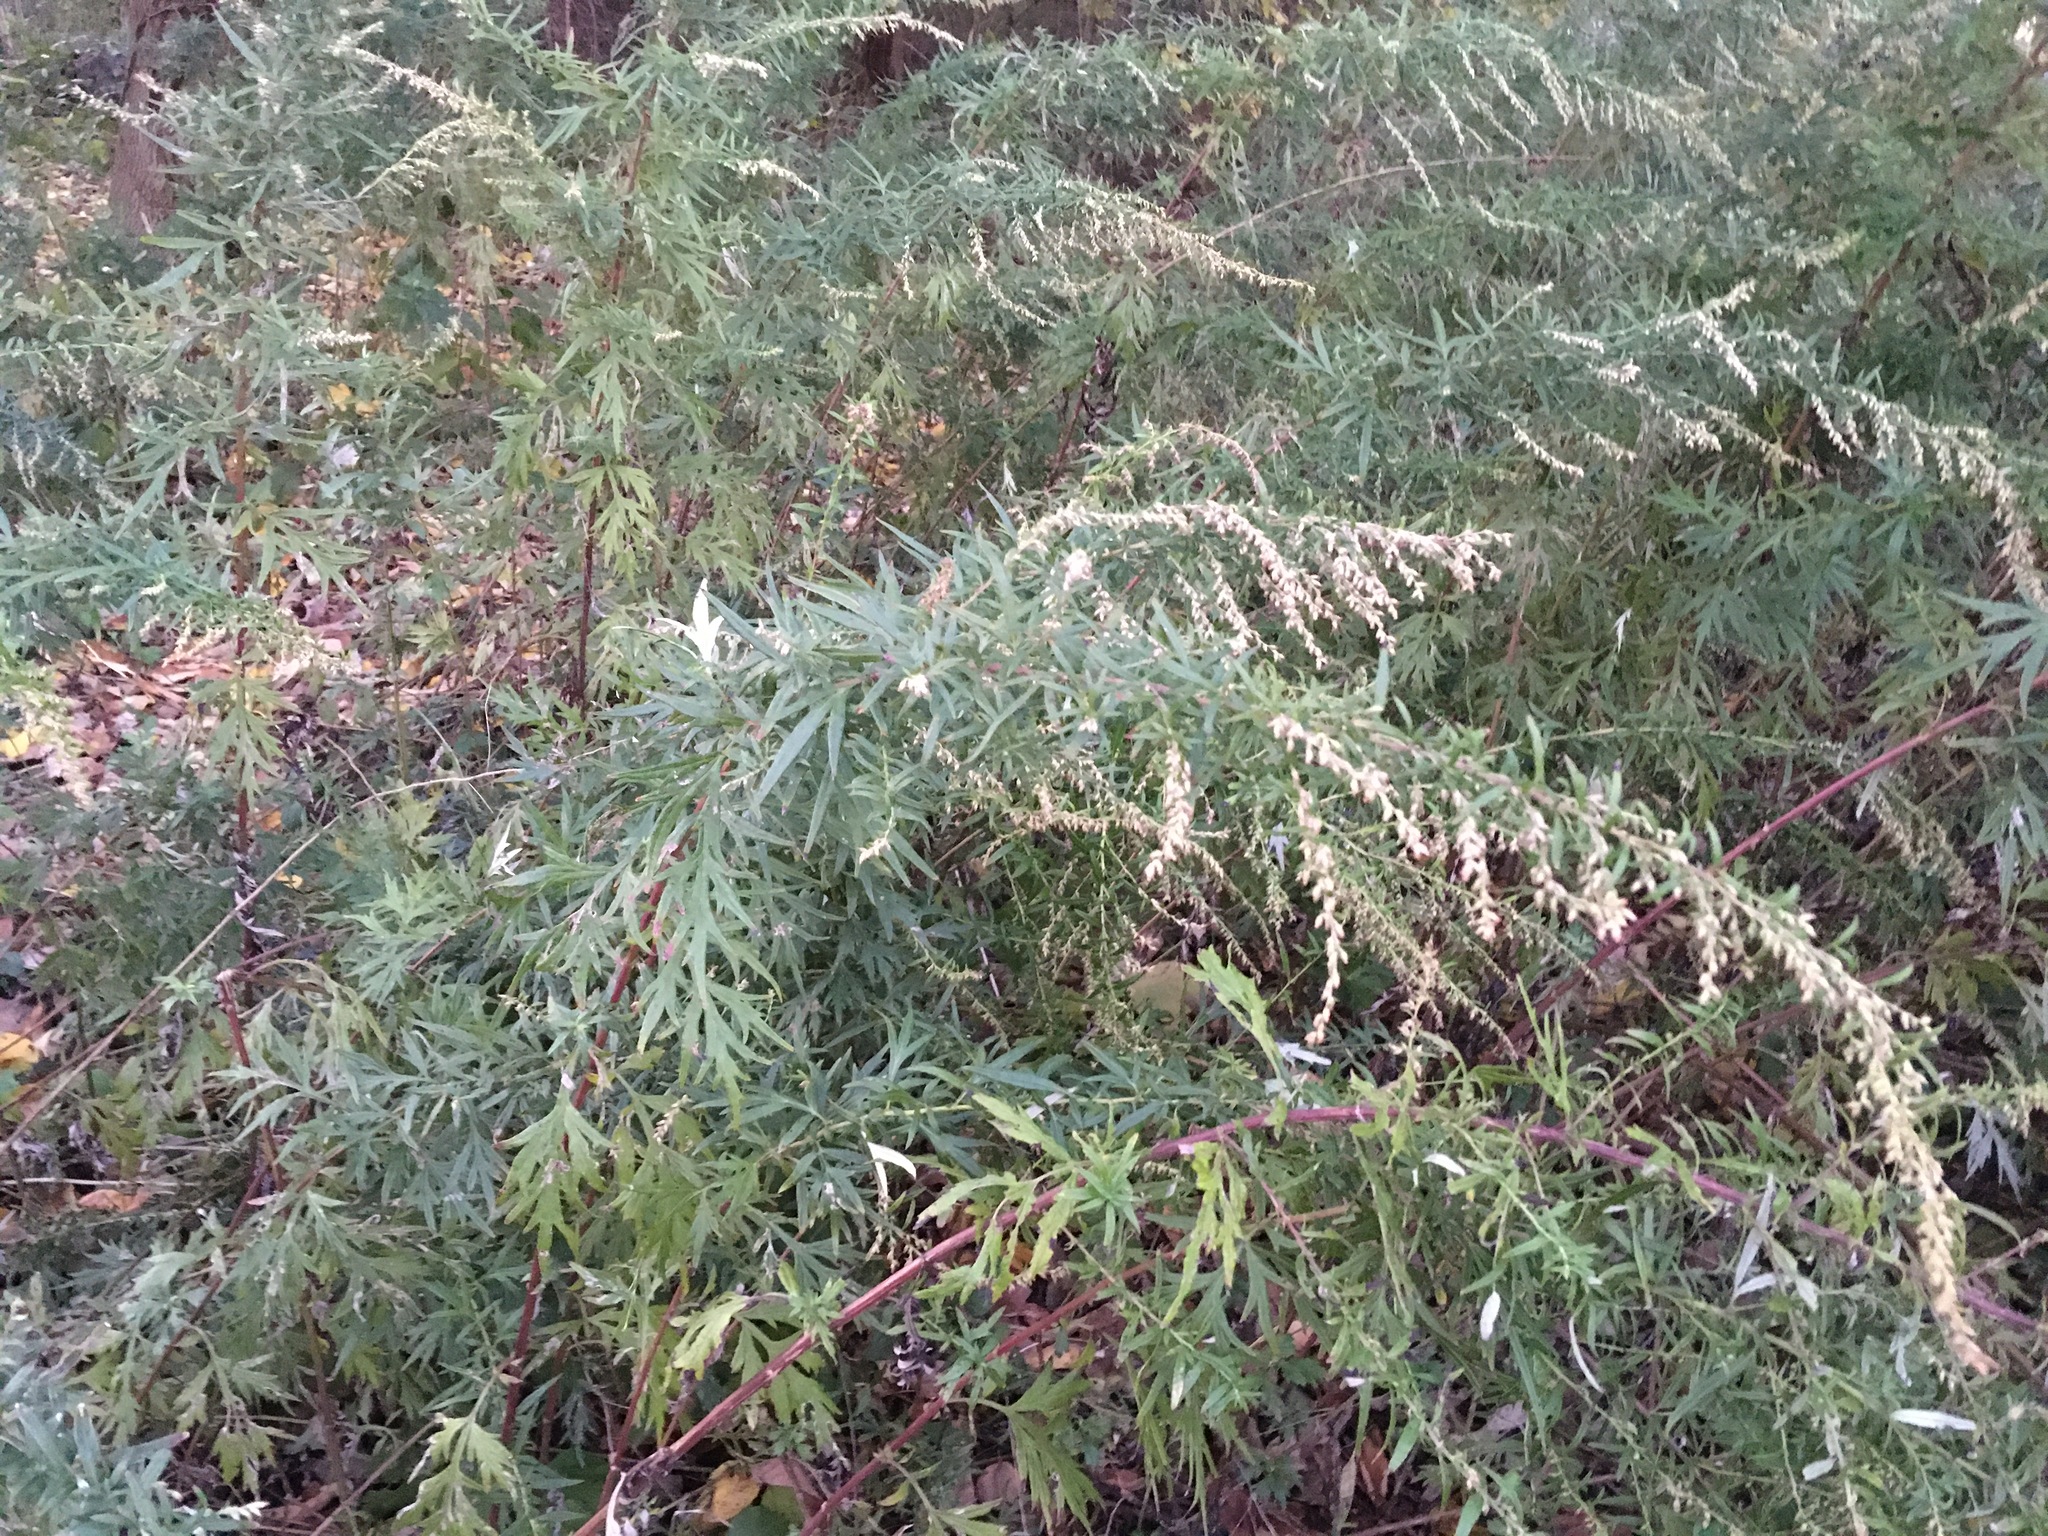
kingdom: Plantae
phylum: Tracheophyta
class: Magnoliopsida
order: Asterales
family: Asteraceae
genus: Artemisia
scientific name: Artemisia vulgaris
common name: Mugwort
